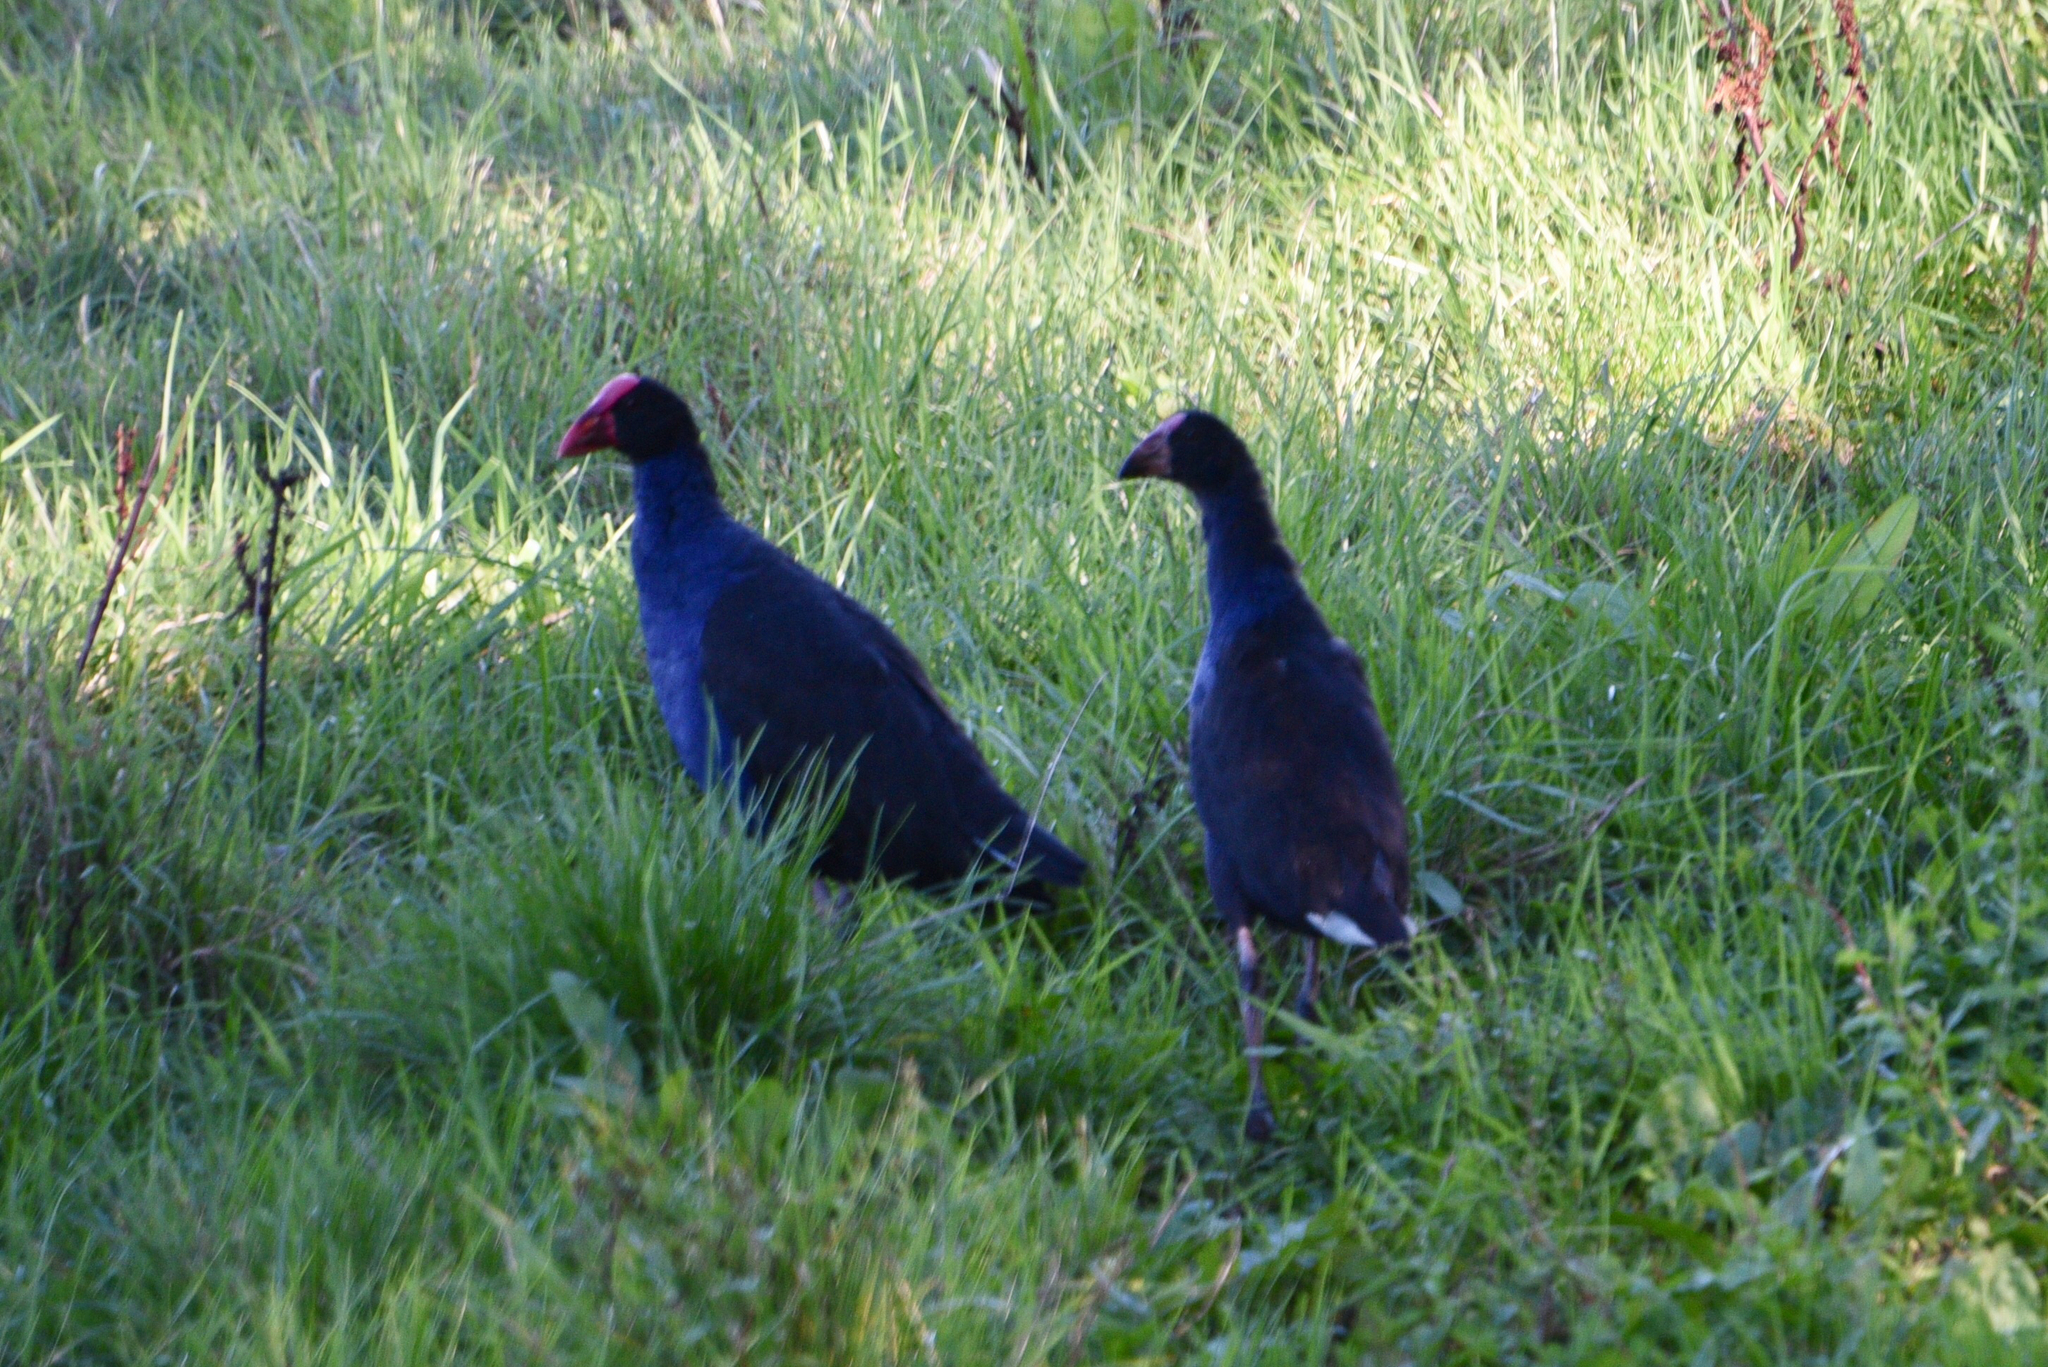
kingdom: Animalia
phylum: Chordata
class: Aves
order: Gruiformes
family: Rallidae
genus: Porphyrio
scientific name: Porphyrio melanotus
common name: Australasian swamphen
